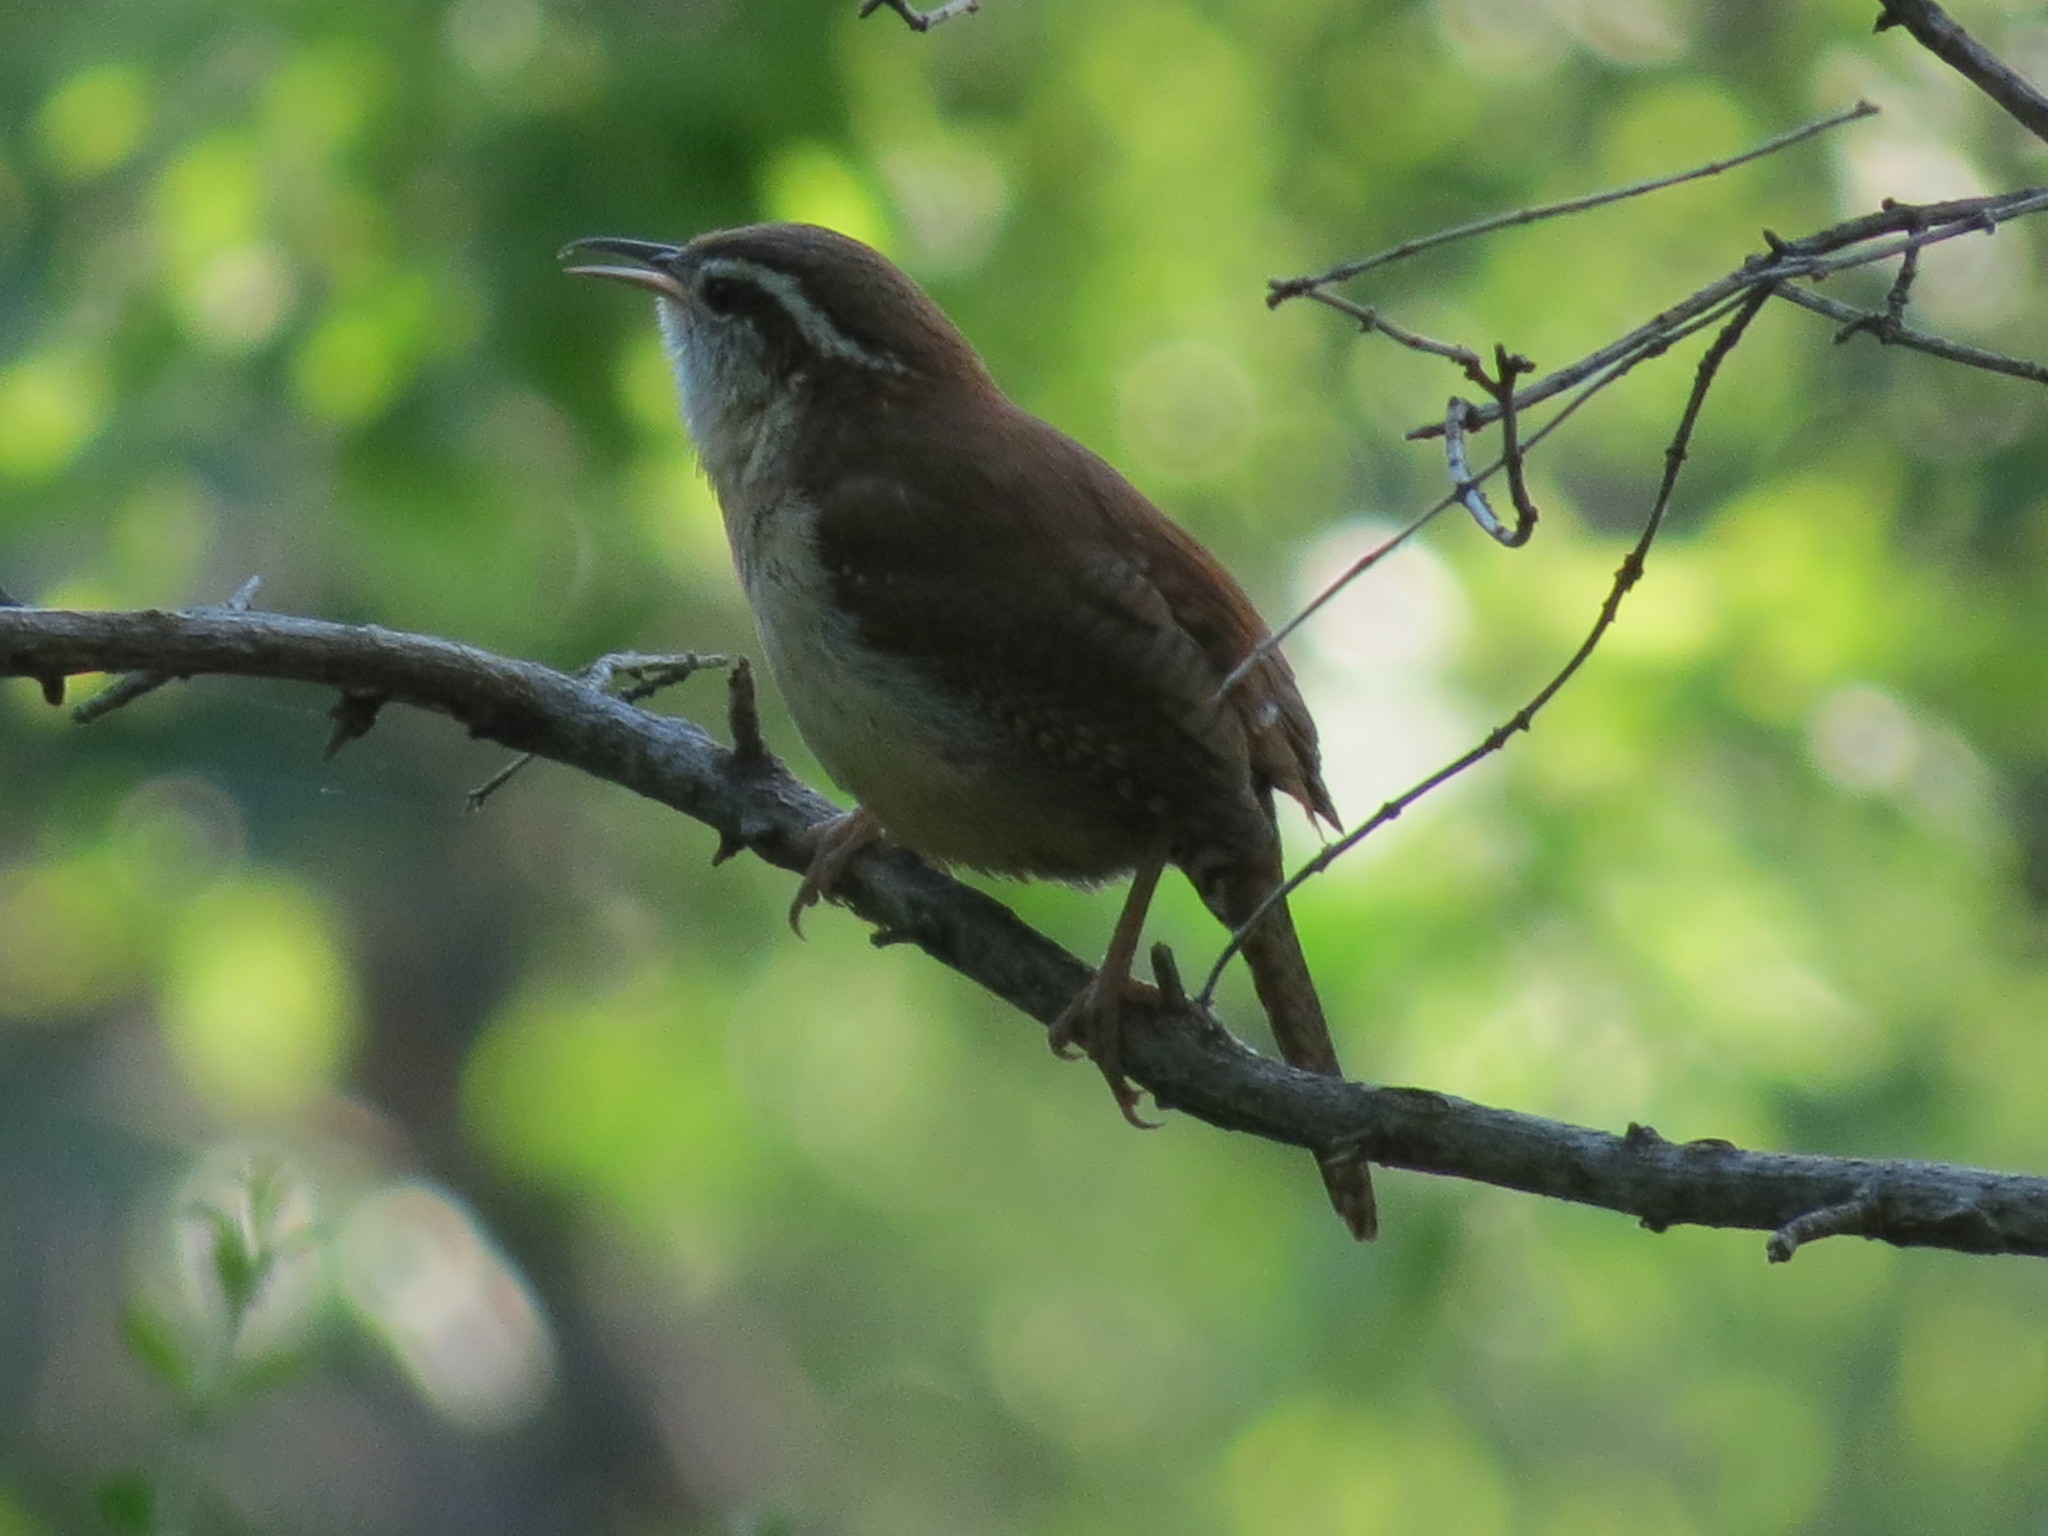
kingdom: Animalia
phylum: Chordata
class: Aves
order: Passeriformes
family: Troglodytidae
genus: Thryothorus
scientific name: Thryothorus ludovicianus
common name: Carolina wren
